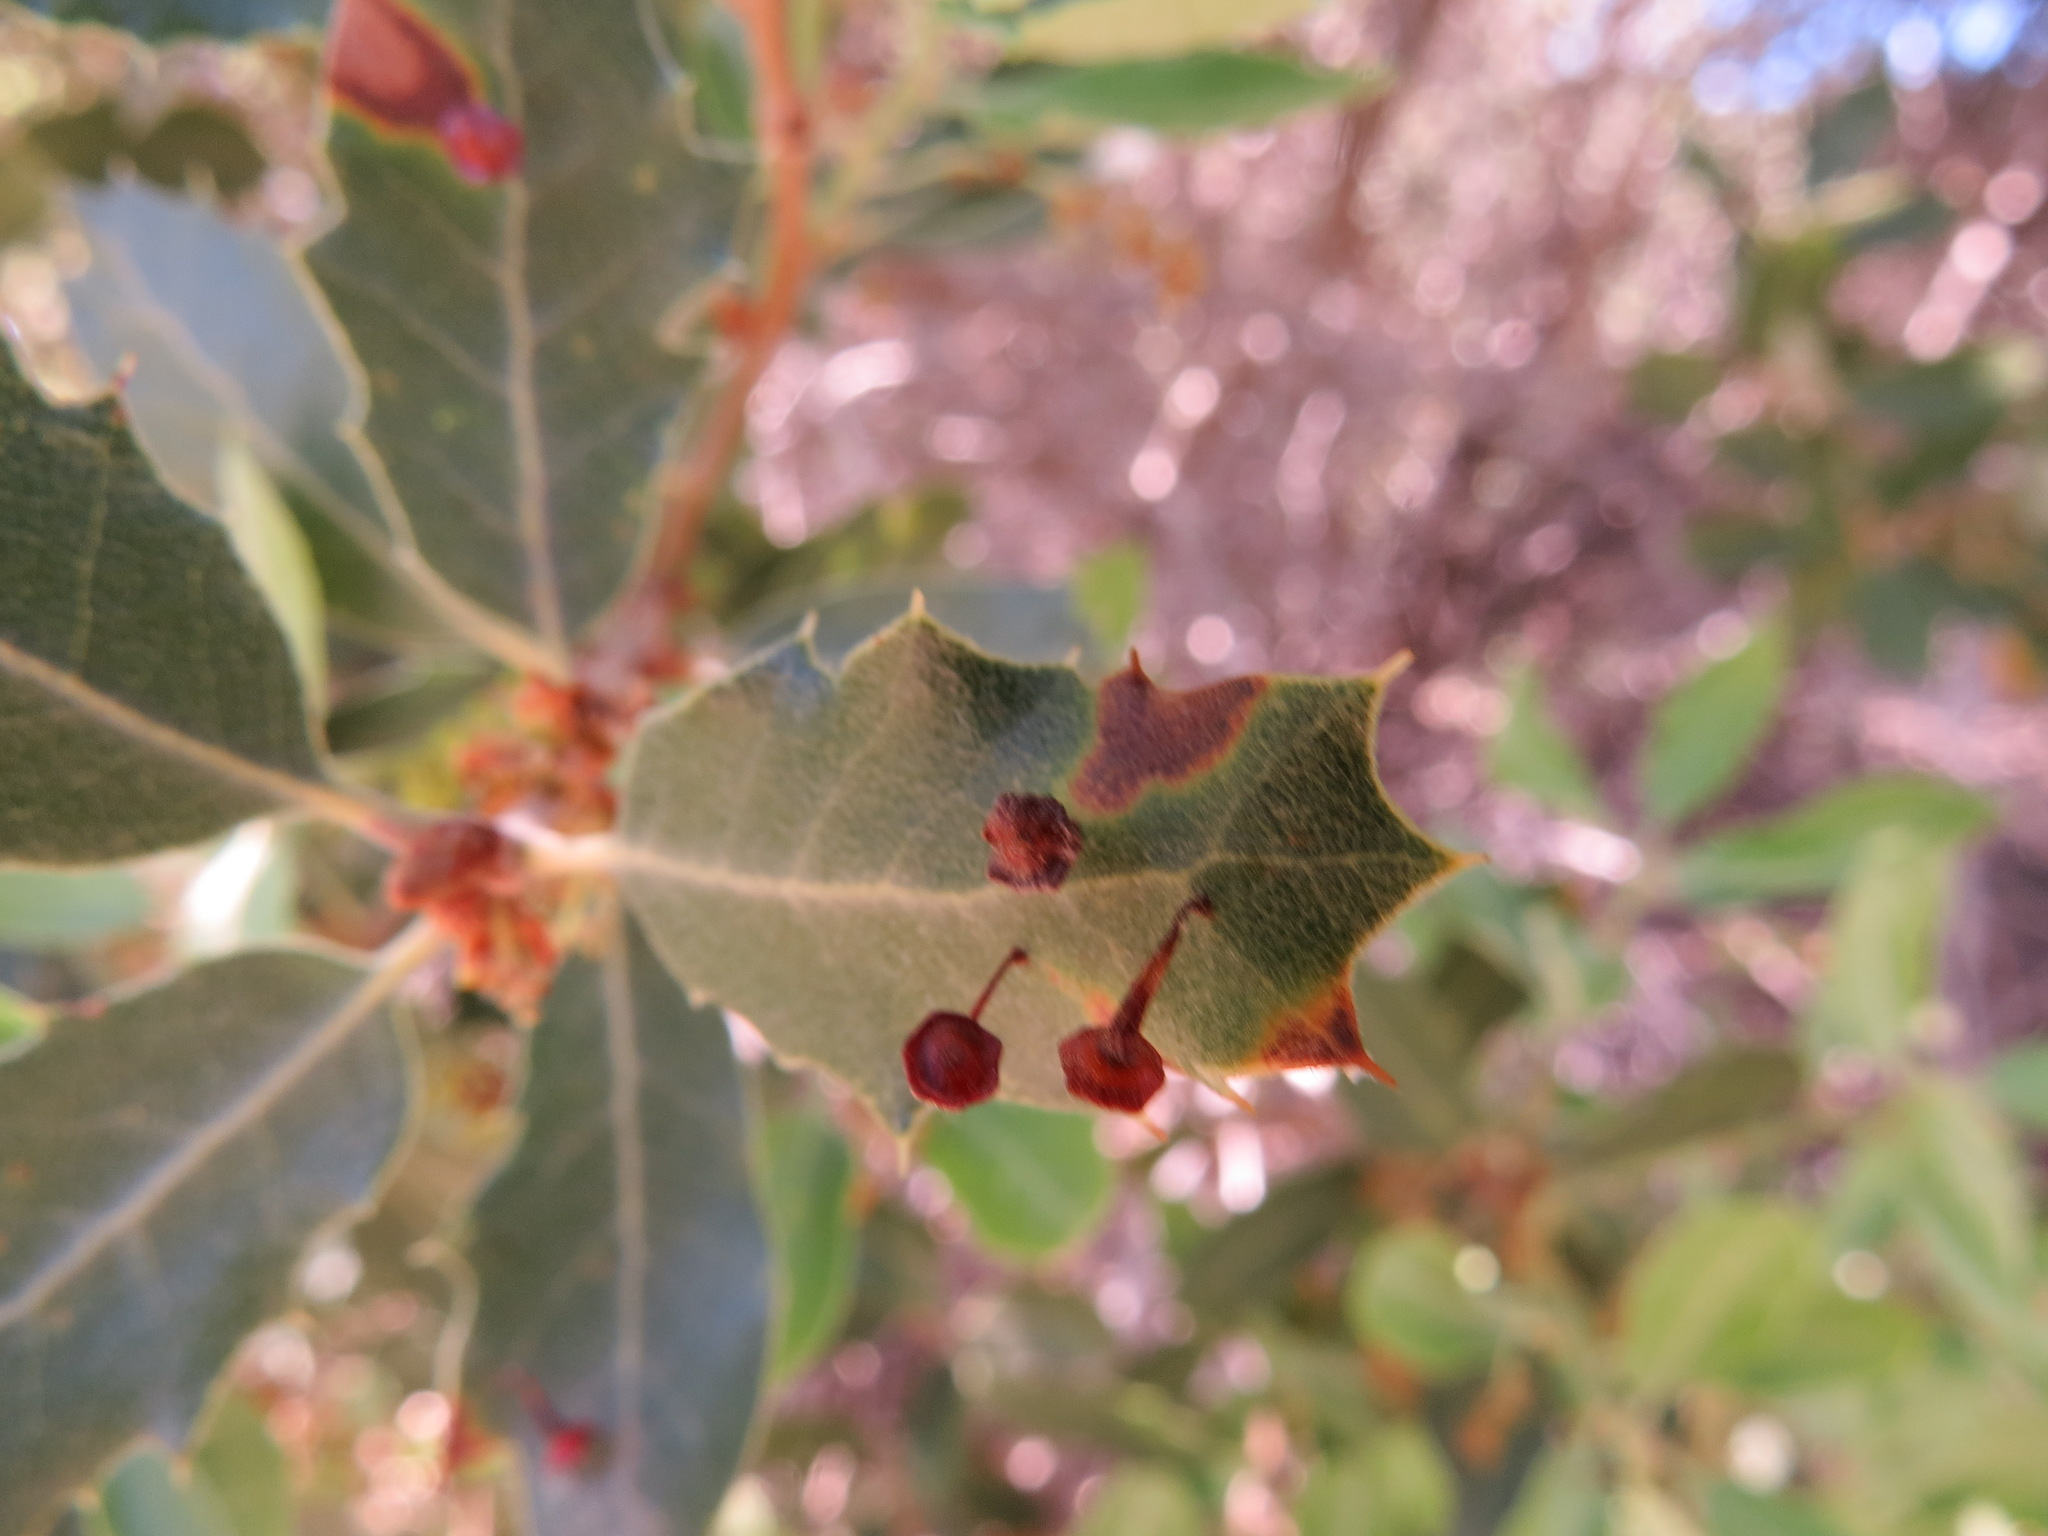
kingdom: Animalia
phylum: Arthropoda
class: Insecta
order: Hymenoptera
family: Cynipidae
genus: Andricus
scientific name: Andricus
